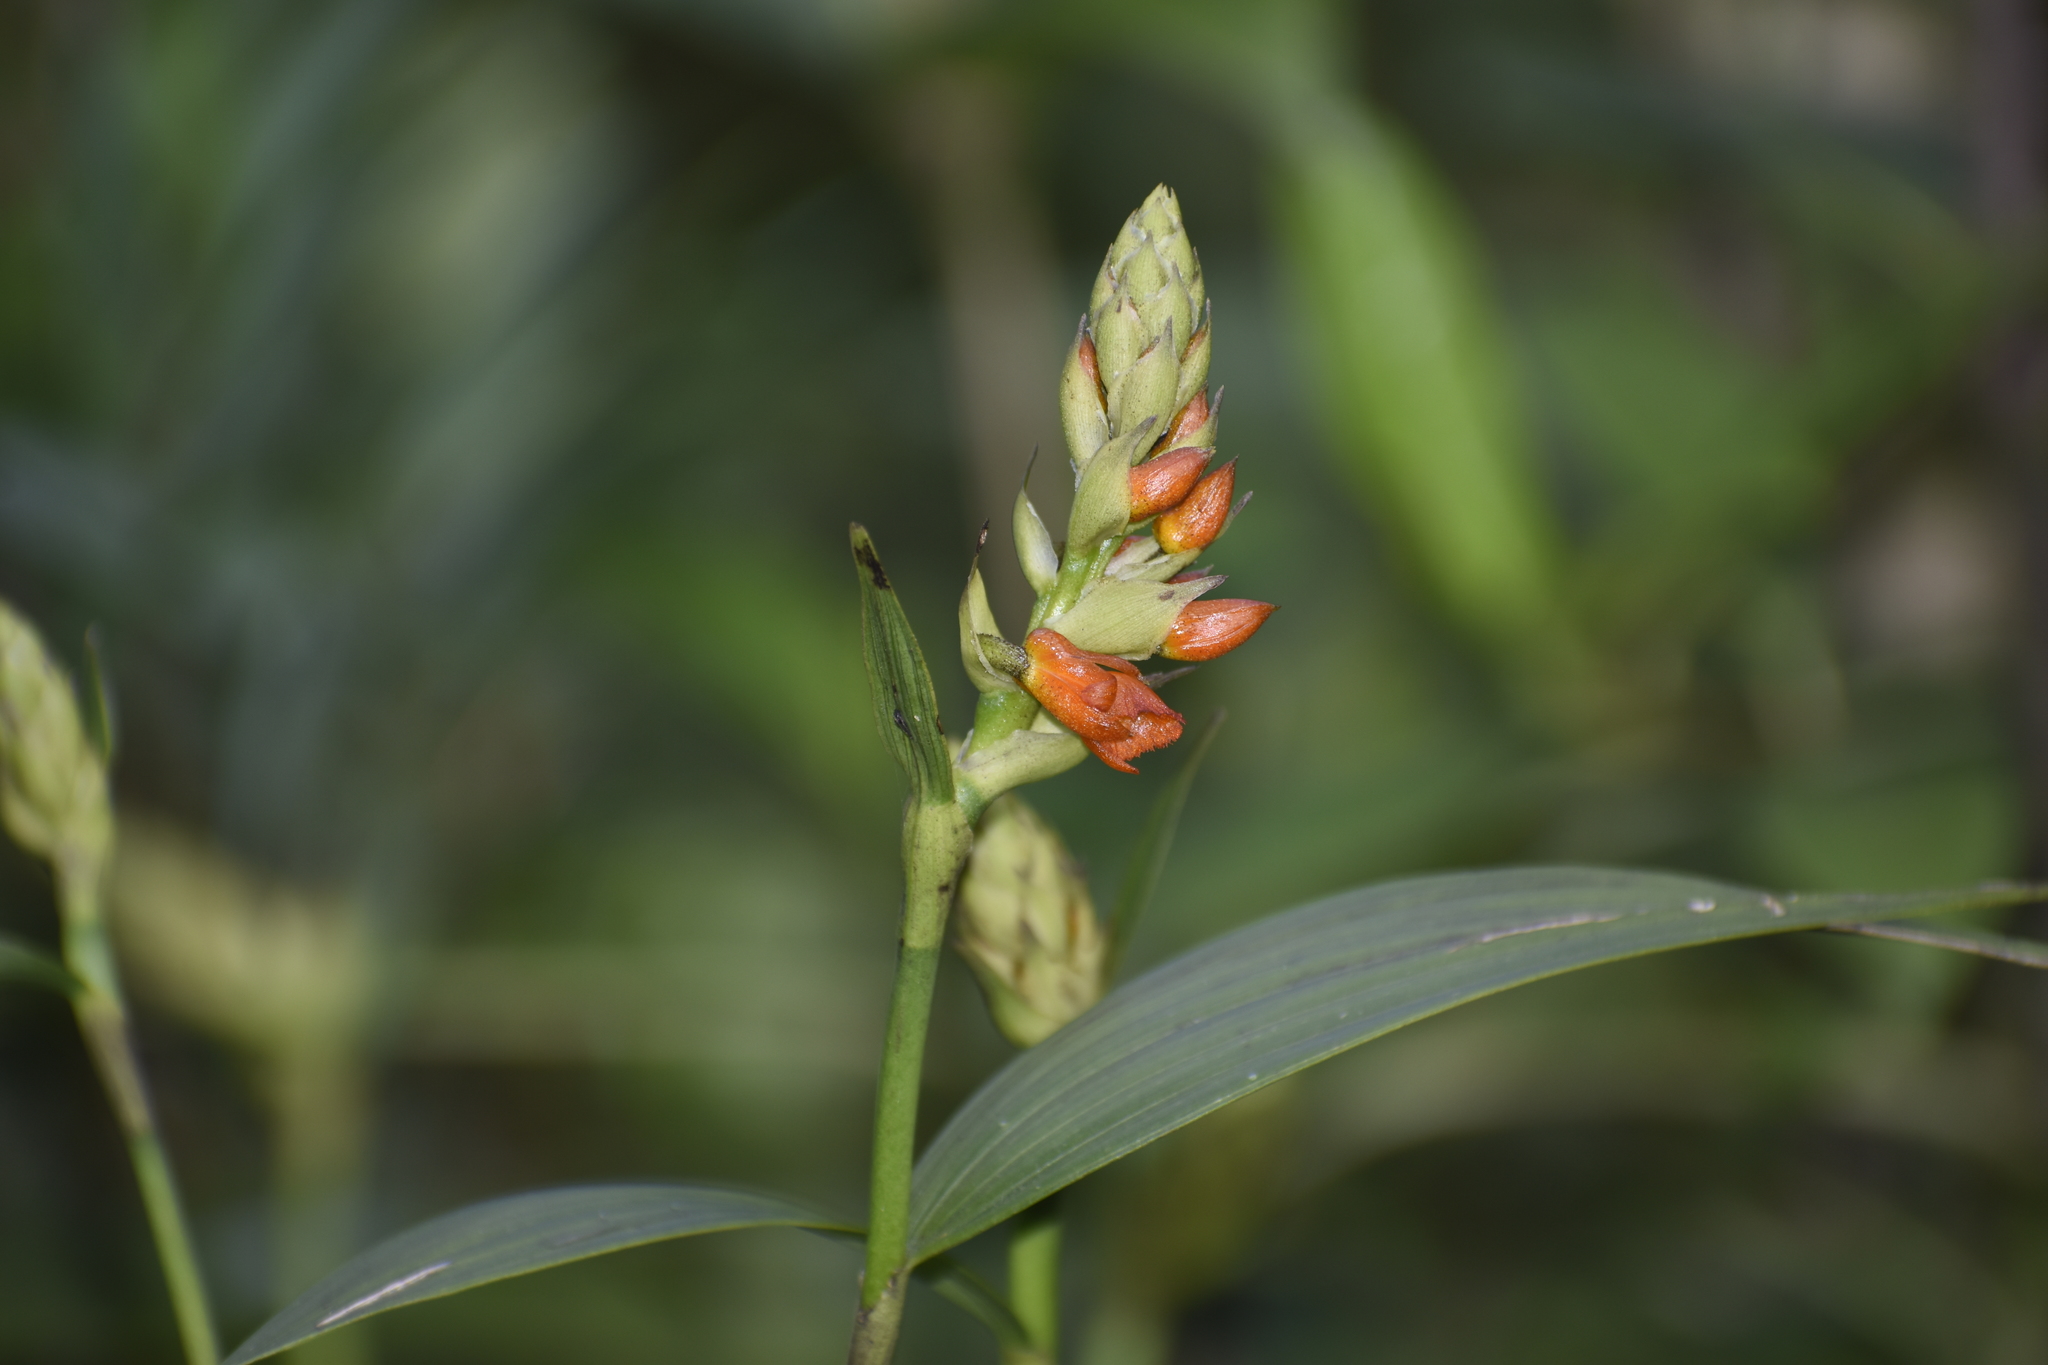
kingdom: Plantae
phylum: Tracheophyta
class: Liliopsida
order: Asparagales
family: Orchidaceae
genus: Elleanthus
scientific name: Elleanthus aurantiacus
